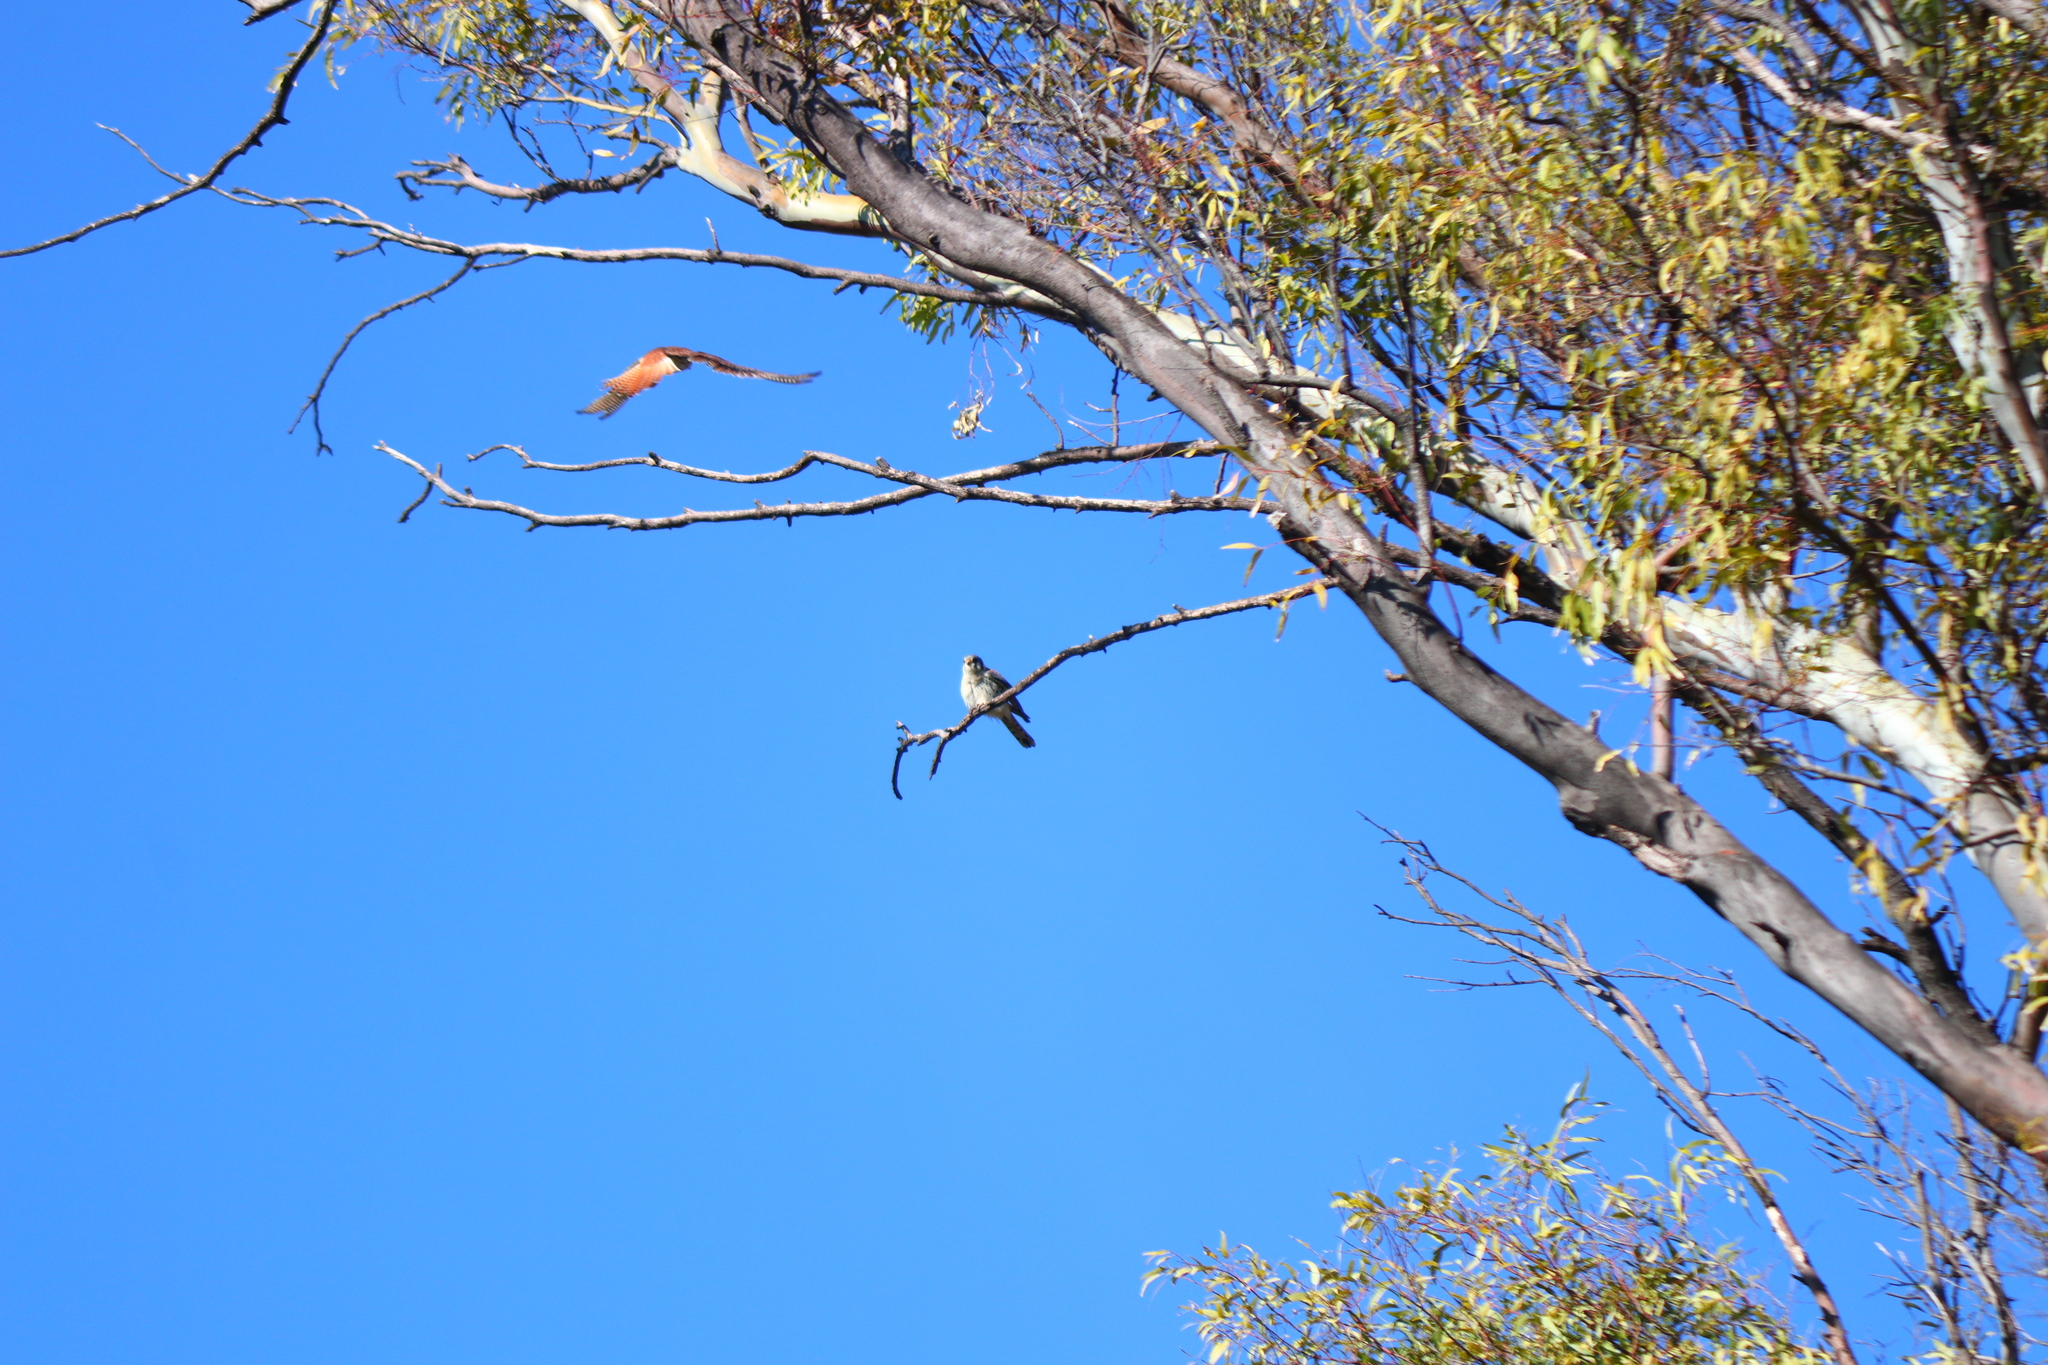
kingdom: Animalia
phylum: Chordata
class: Aves
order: Falconiformes
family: Falconidae
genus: Falco
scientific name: Falco sparverius
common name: American kestrel
